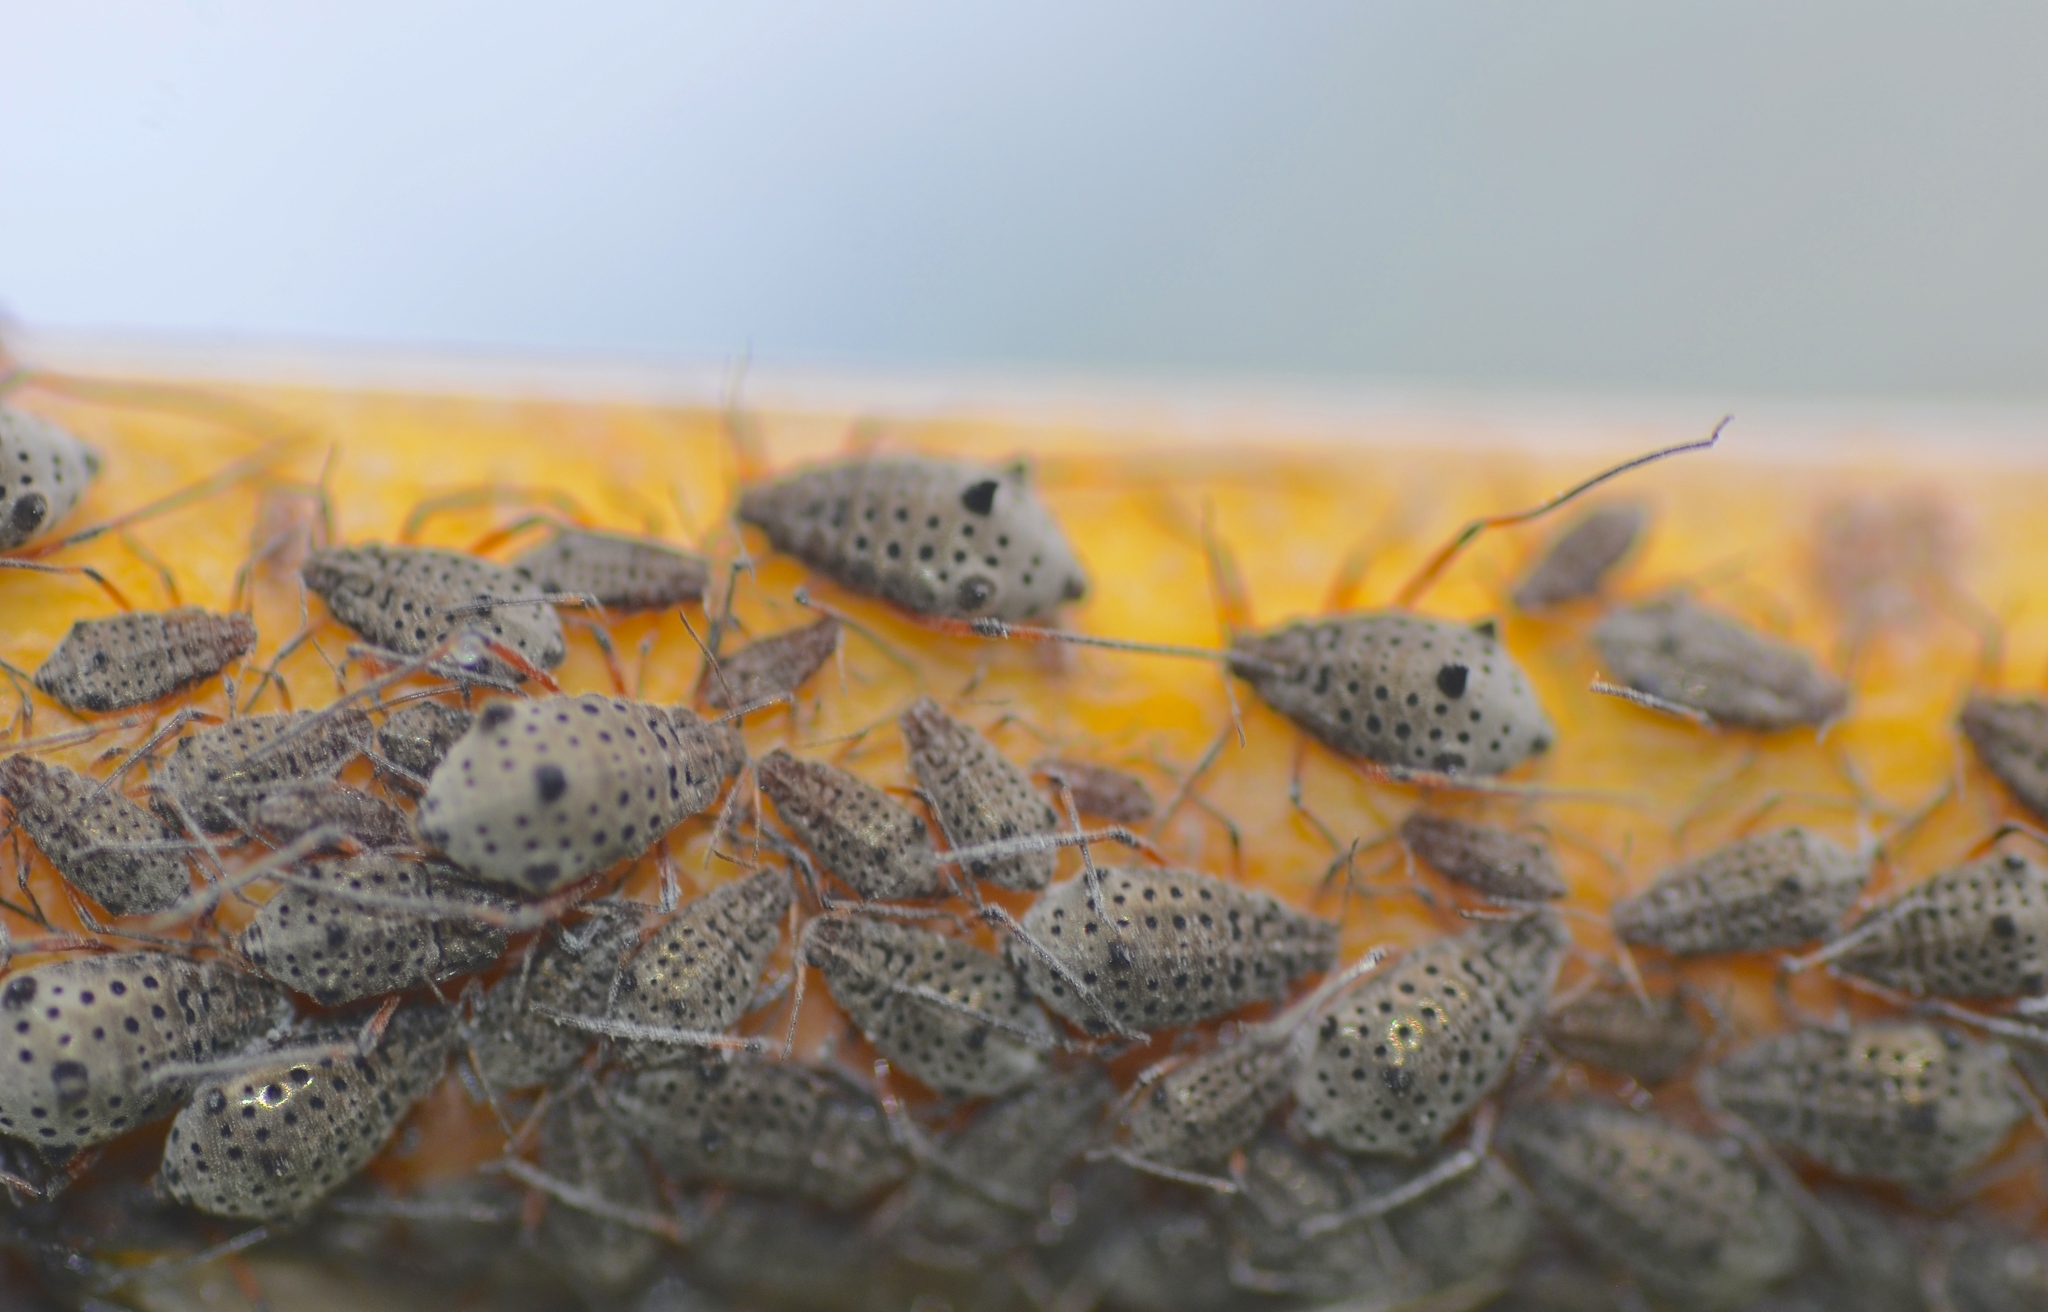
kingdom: Animalia
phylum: Arthropoda
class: Insecta
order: Hemiptera
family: Aphididae
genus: Tuberolachnus
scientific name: Tuberolachnus salignus
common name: Giant willow aphid
